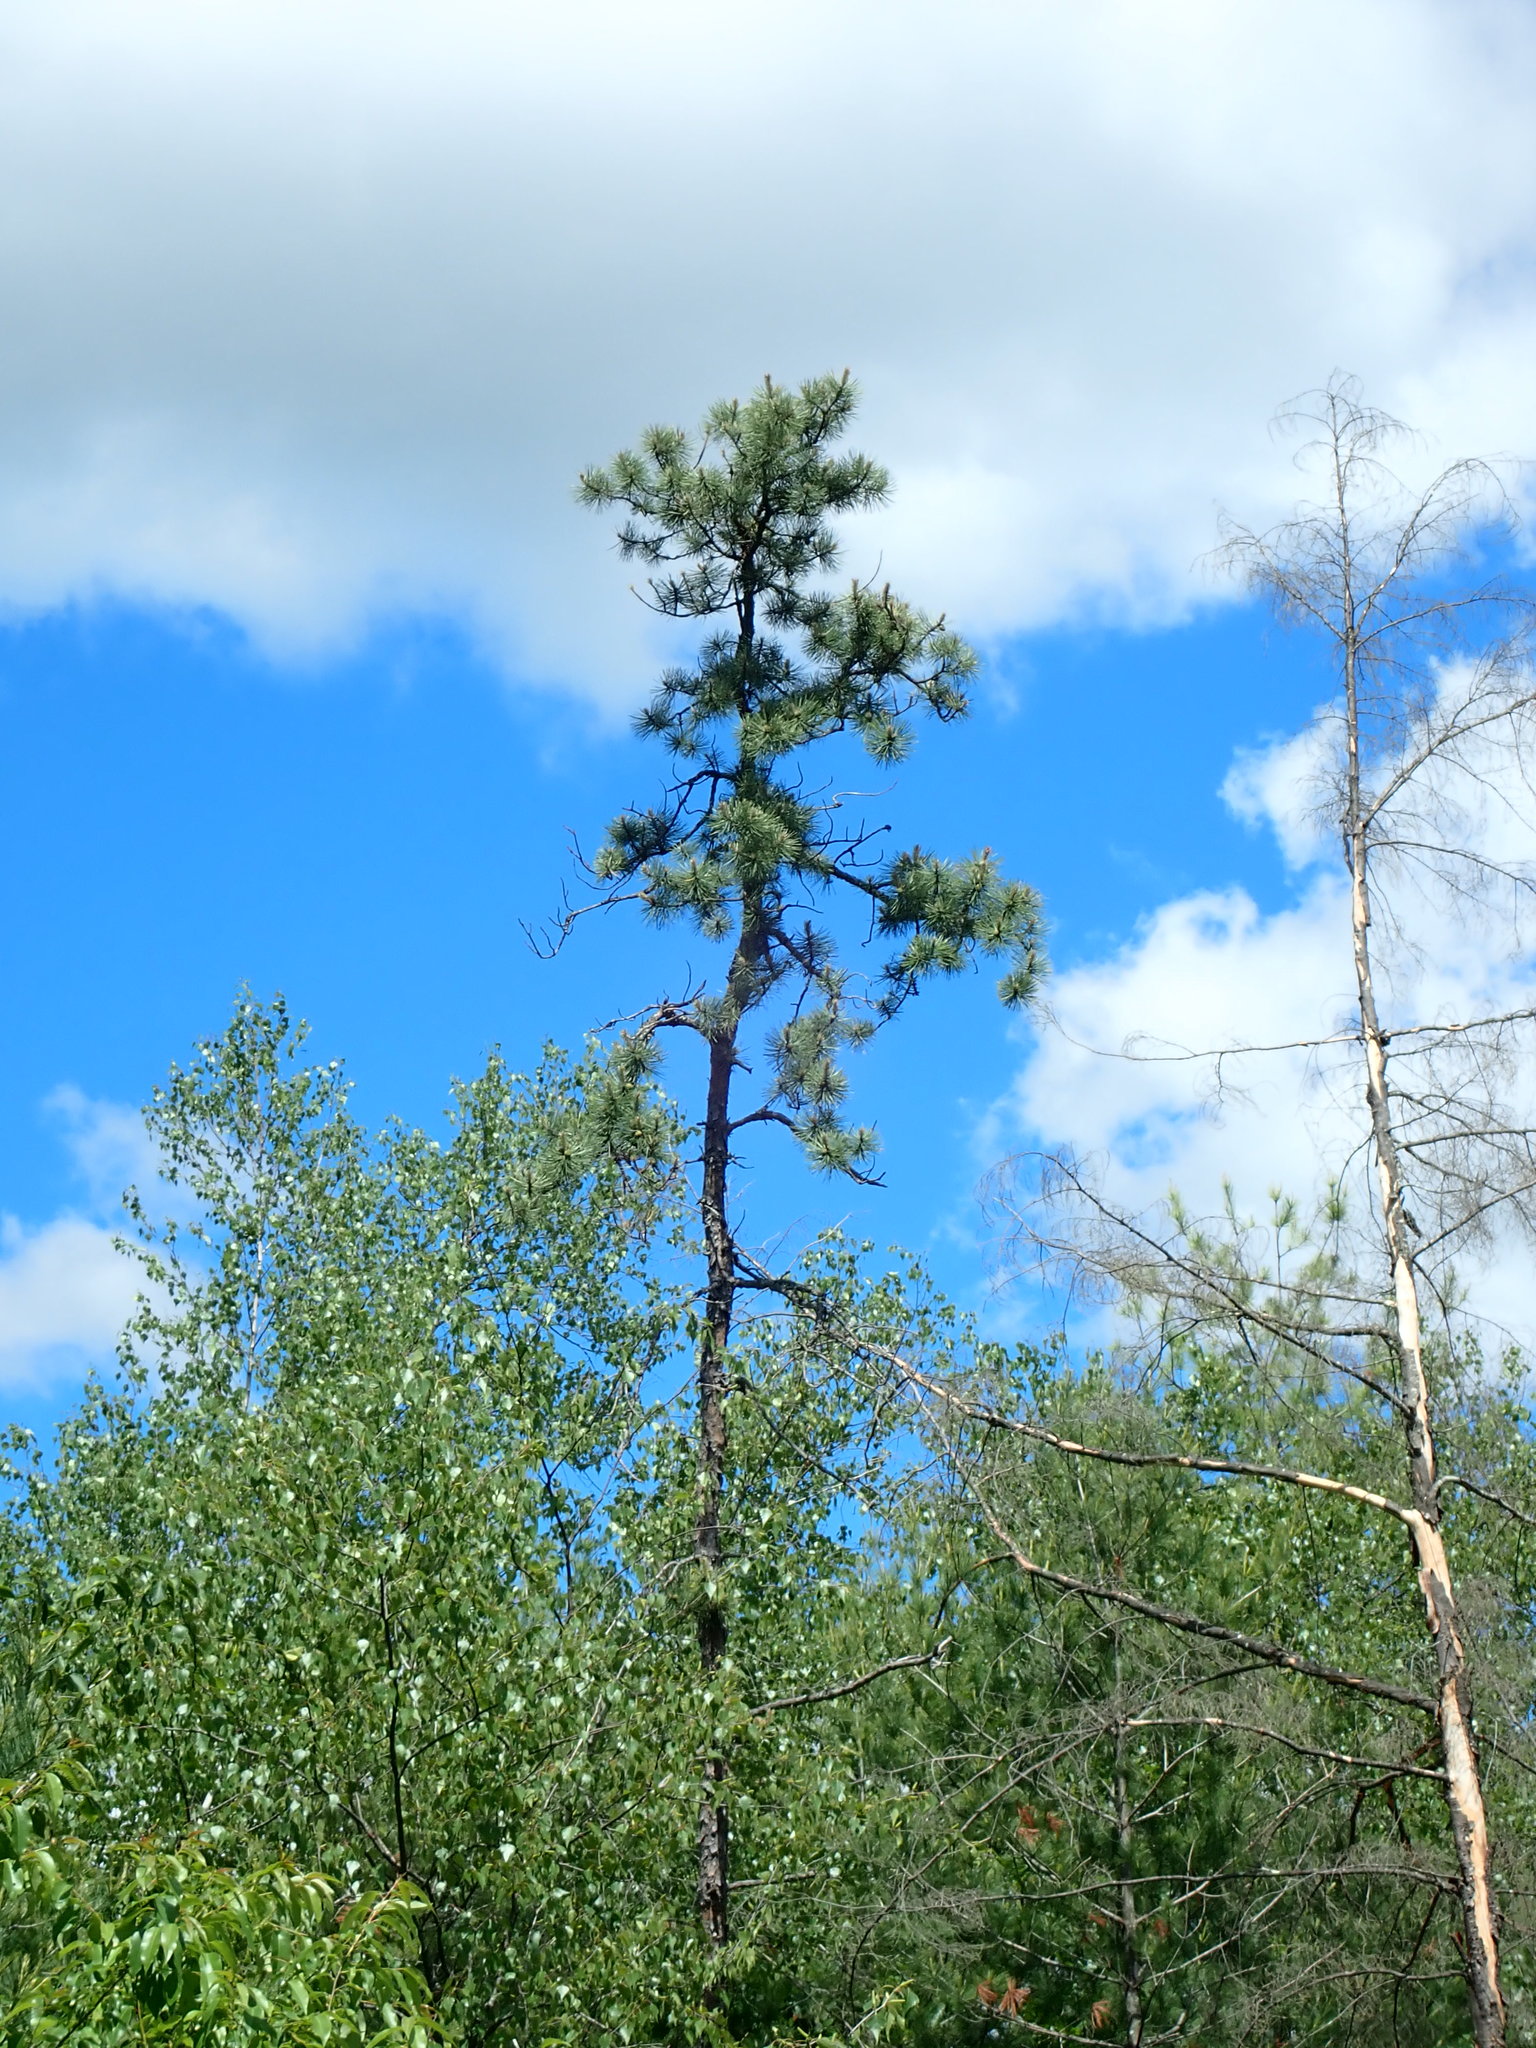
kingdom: Plantae
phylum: Tracheophyta
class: Pinopsida
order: Pinales
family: Pinaceae
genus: Pinus
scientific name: Pinus rigida
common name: Pitch pine
